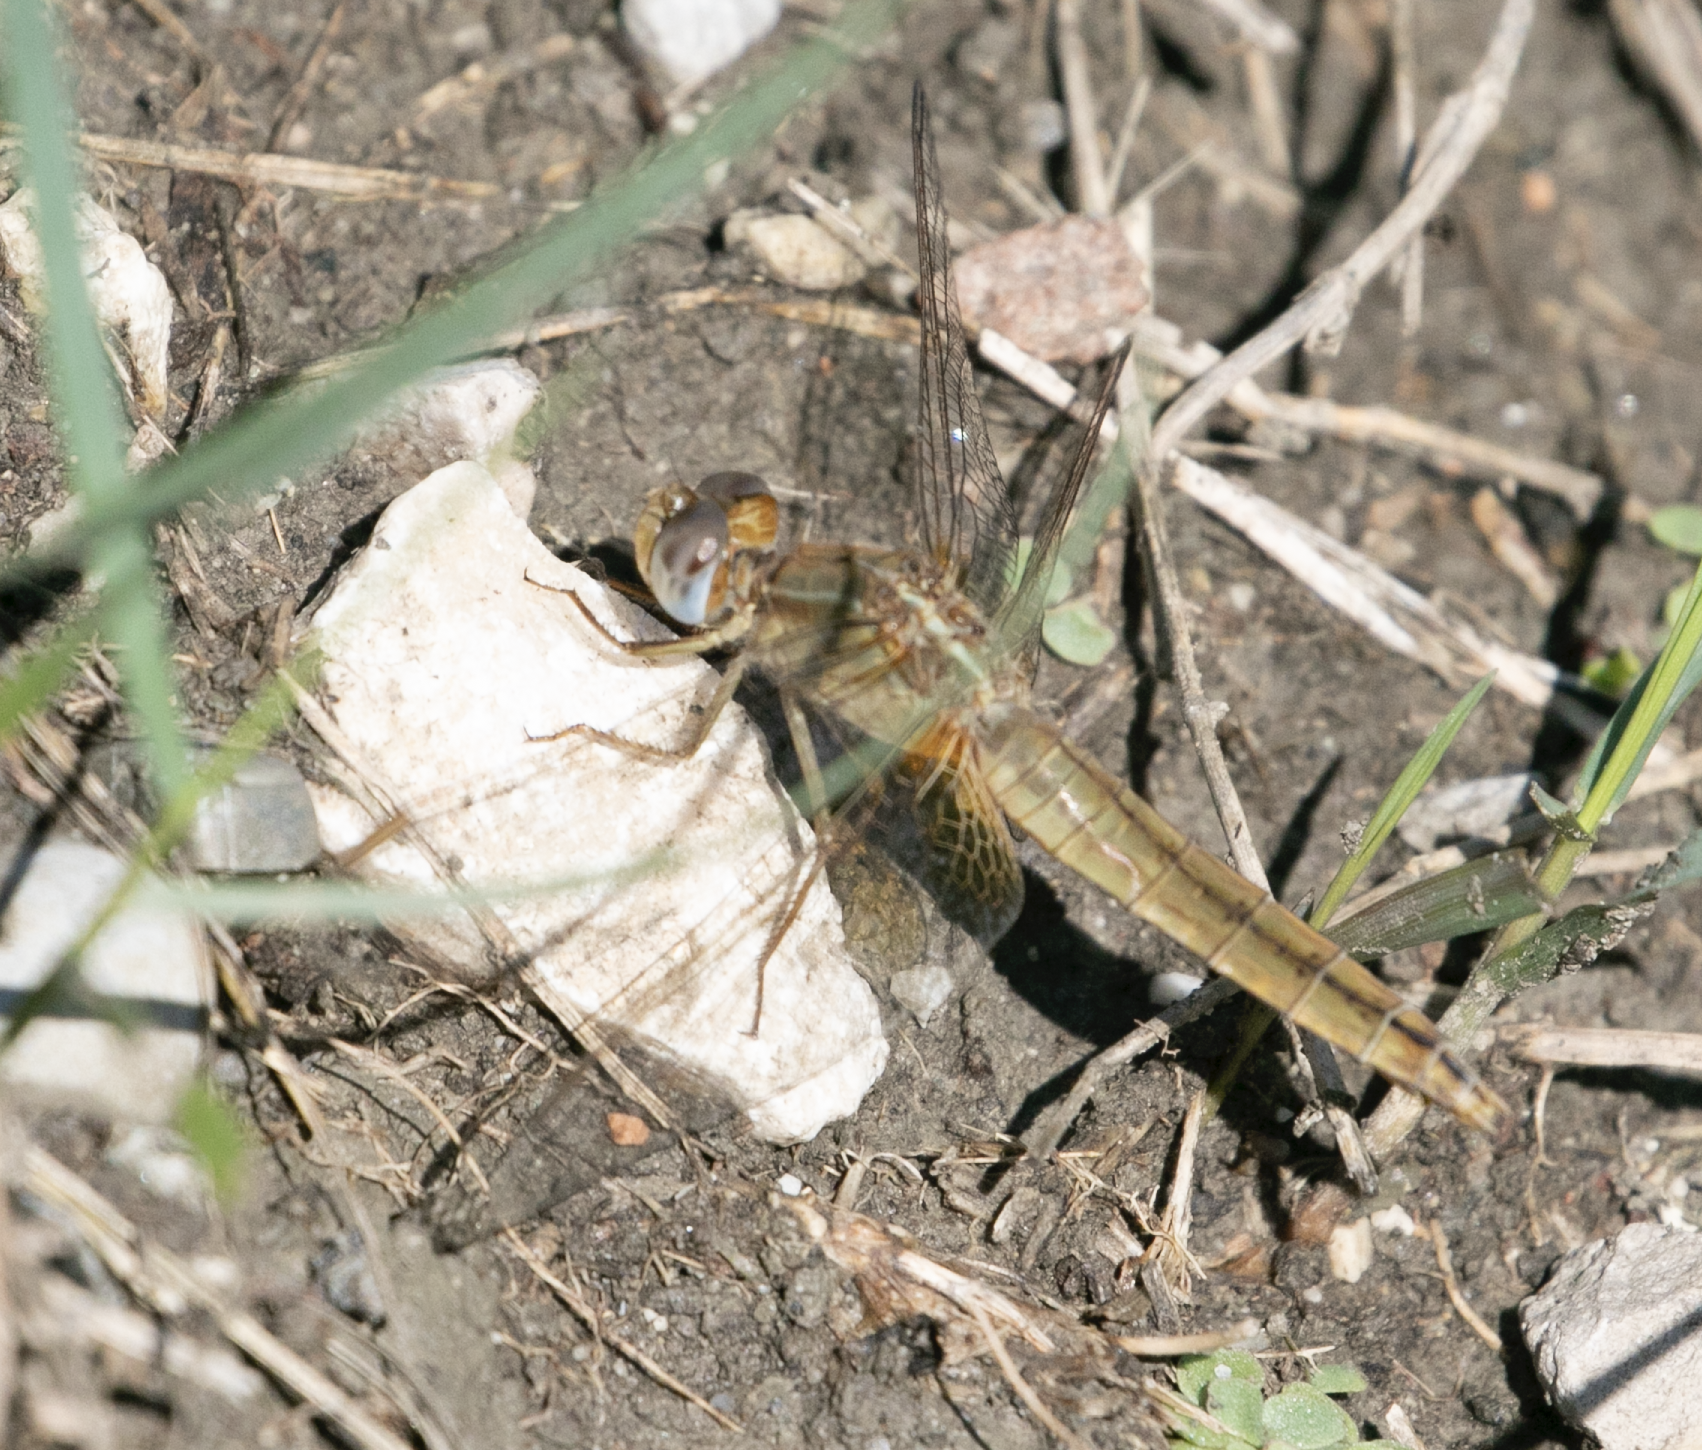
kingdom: Animalia
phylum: Arthropoda
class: Insecta
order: Odonata
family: Libellulidae
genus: Crocothemis
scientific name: Crocothemis erythraea
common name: Scarlet dragonfly
